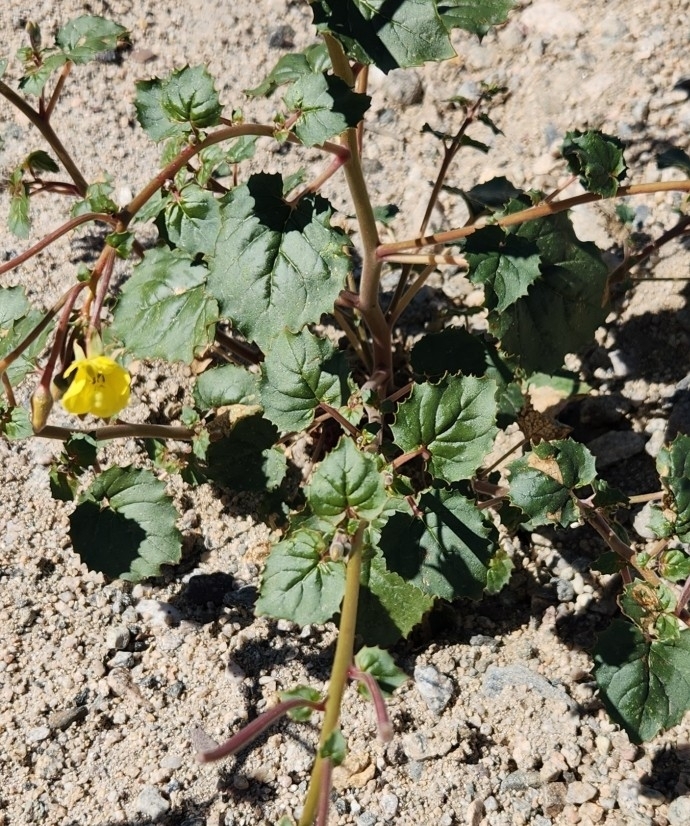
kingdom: Plantae
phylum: Tracheophyta
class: Magnoliopsida
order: Myrtales
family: Onagraceae
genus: Chylismia
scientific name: Chylismia cardiophylla
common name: Heartleaf suncup
